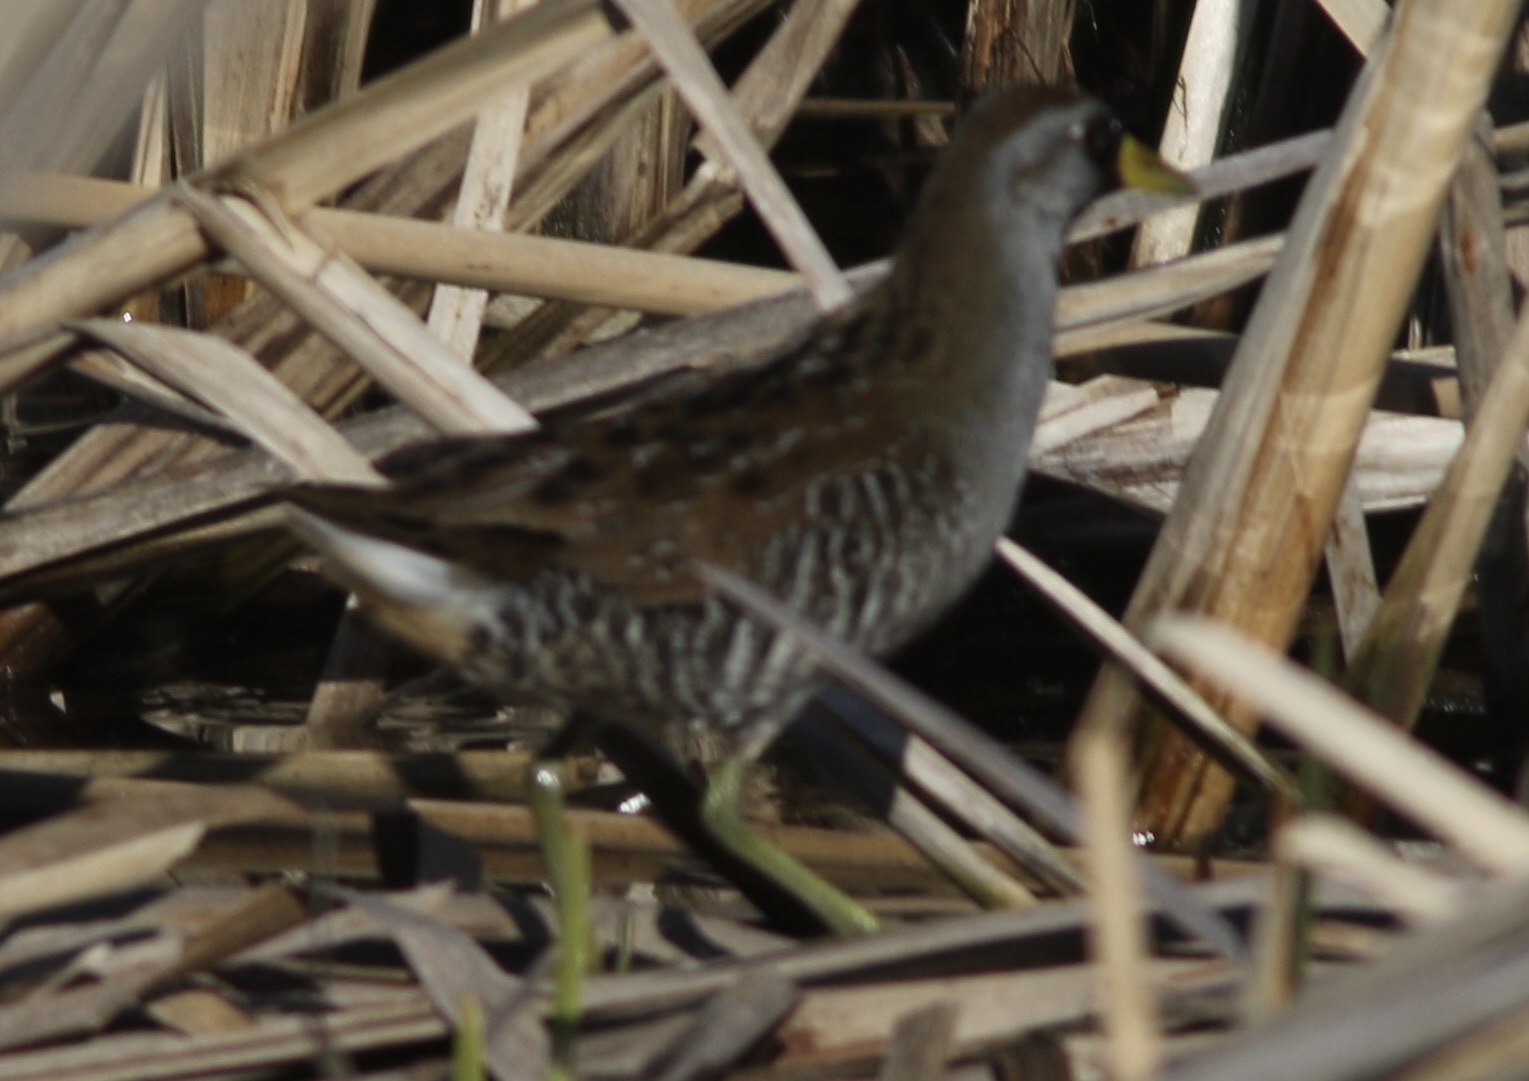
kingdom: Animalia
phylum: Chordata
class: Aves
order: Gruiformes
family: Rallidae
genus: Porzana
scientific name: Porzana carolina
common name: Sora
